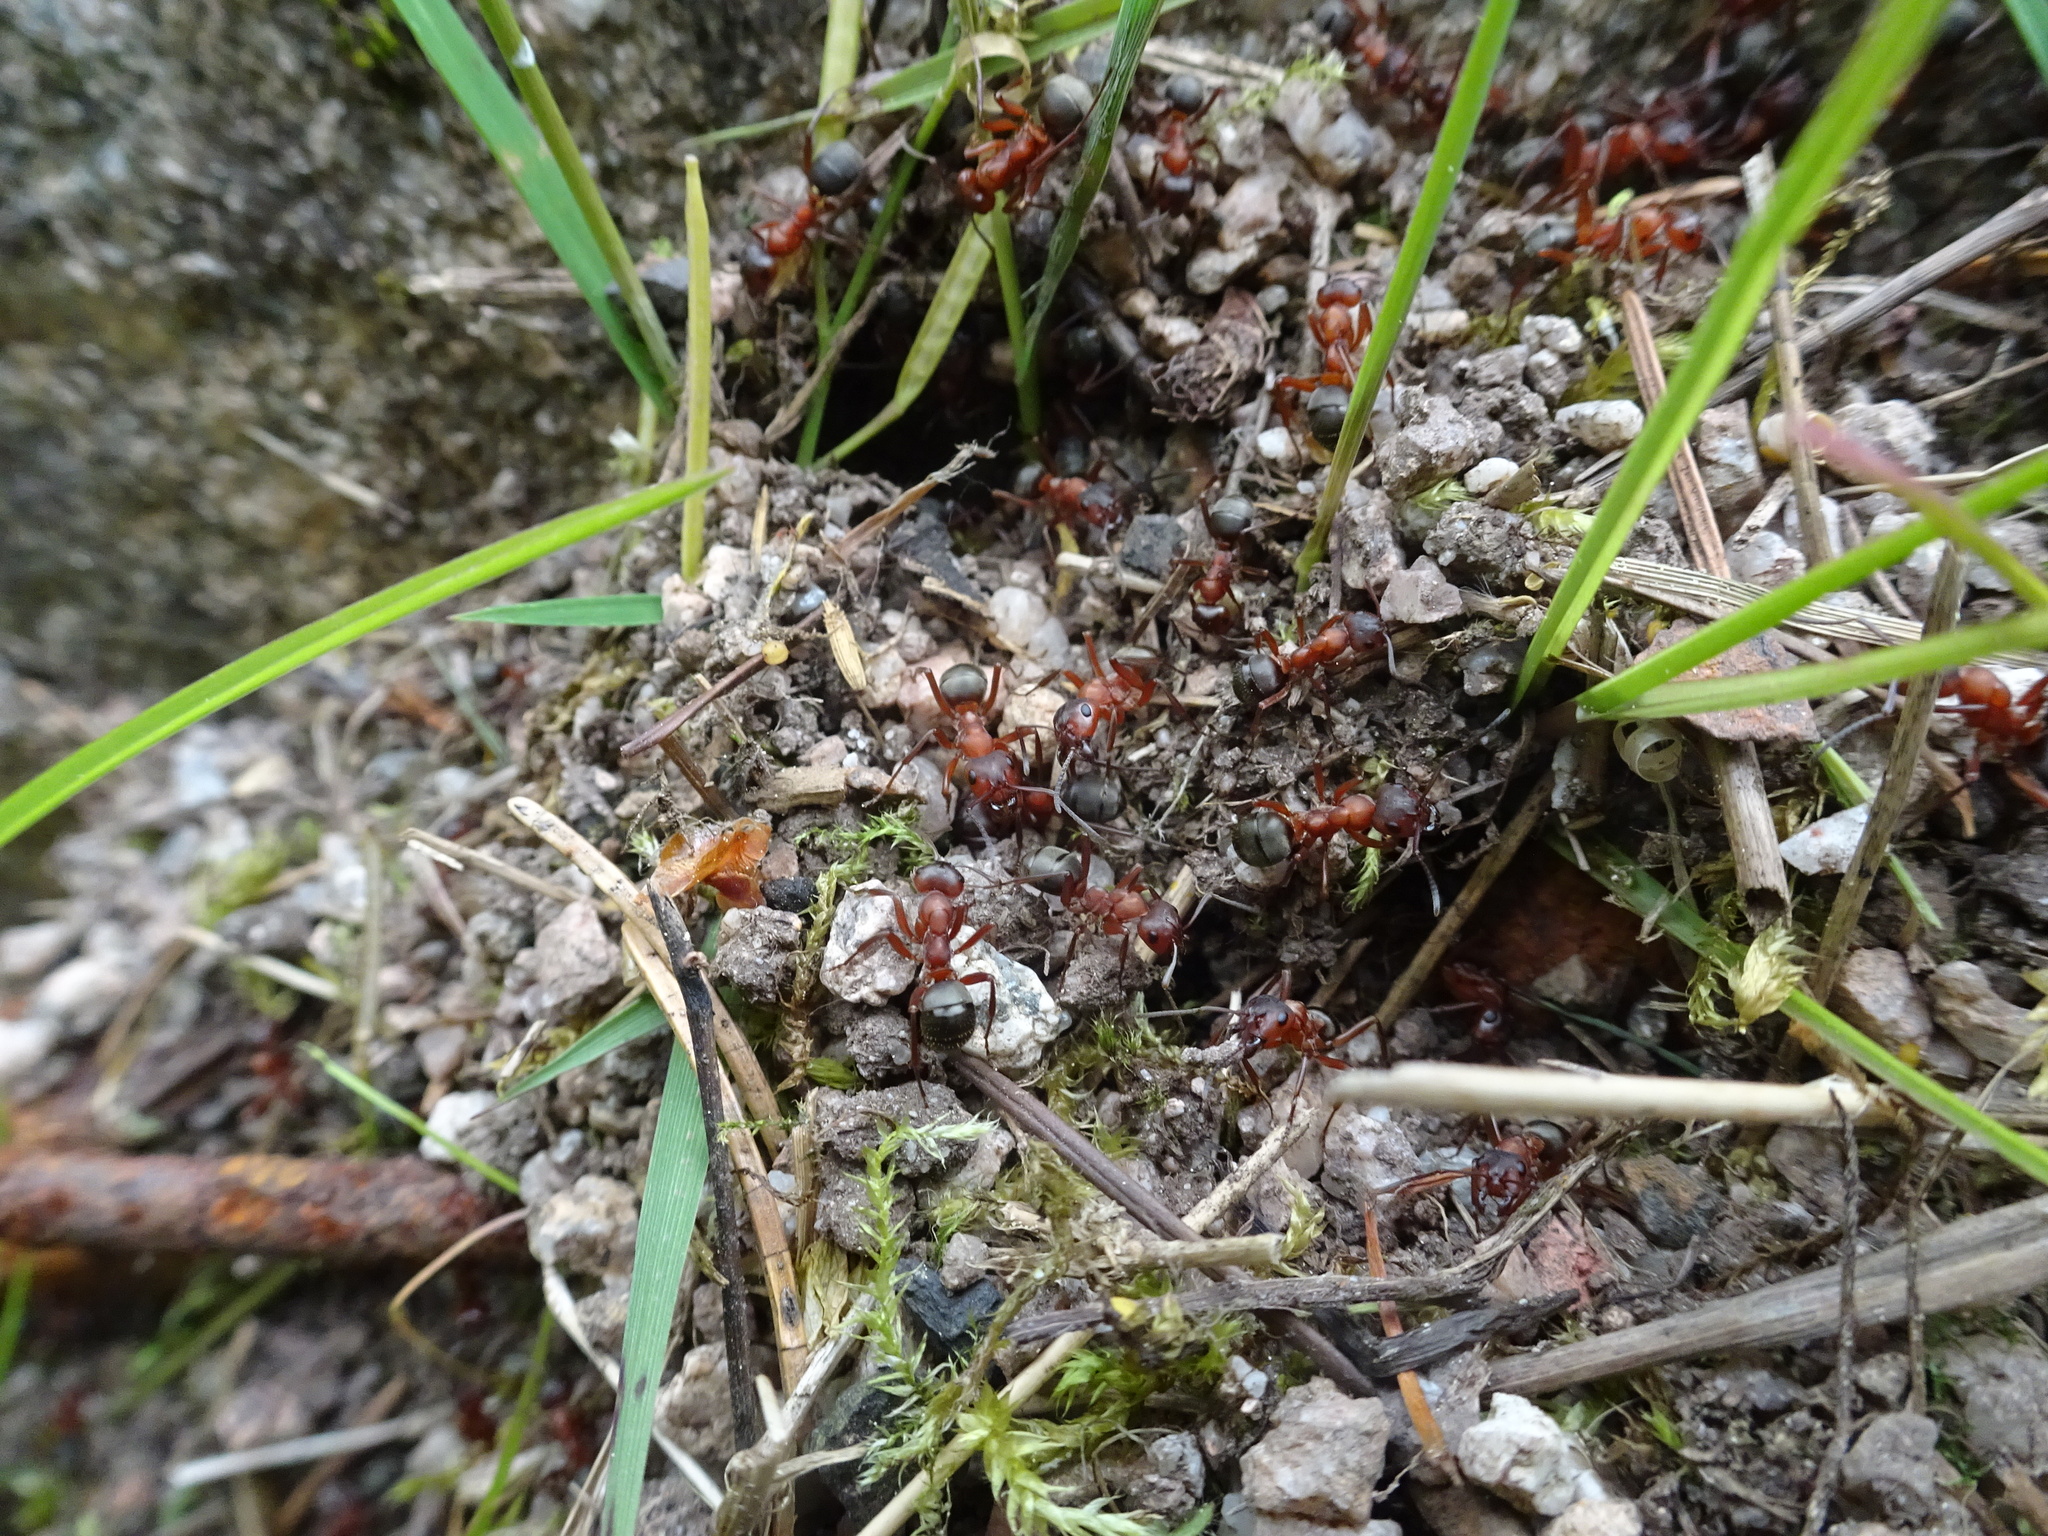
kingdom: Animalia
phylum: Arthropoda
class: Insecta
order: Hymenoptera
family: Formicidae
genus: Formica
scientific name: Formica sanguinea
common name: Blood-red ant
